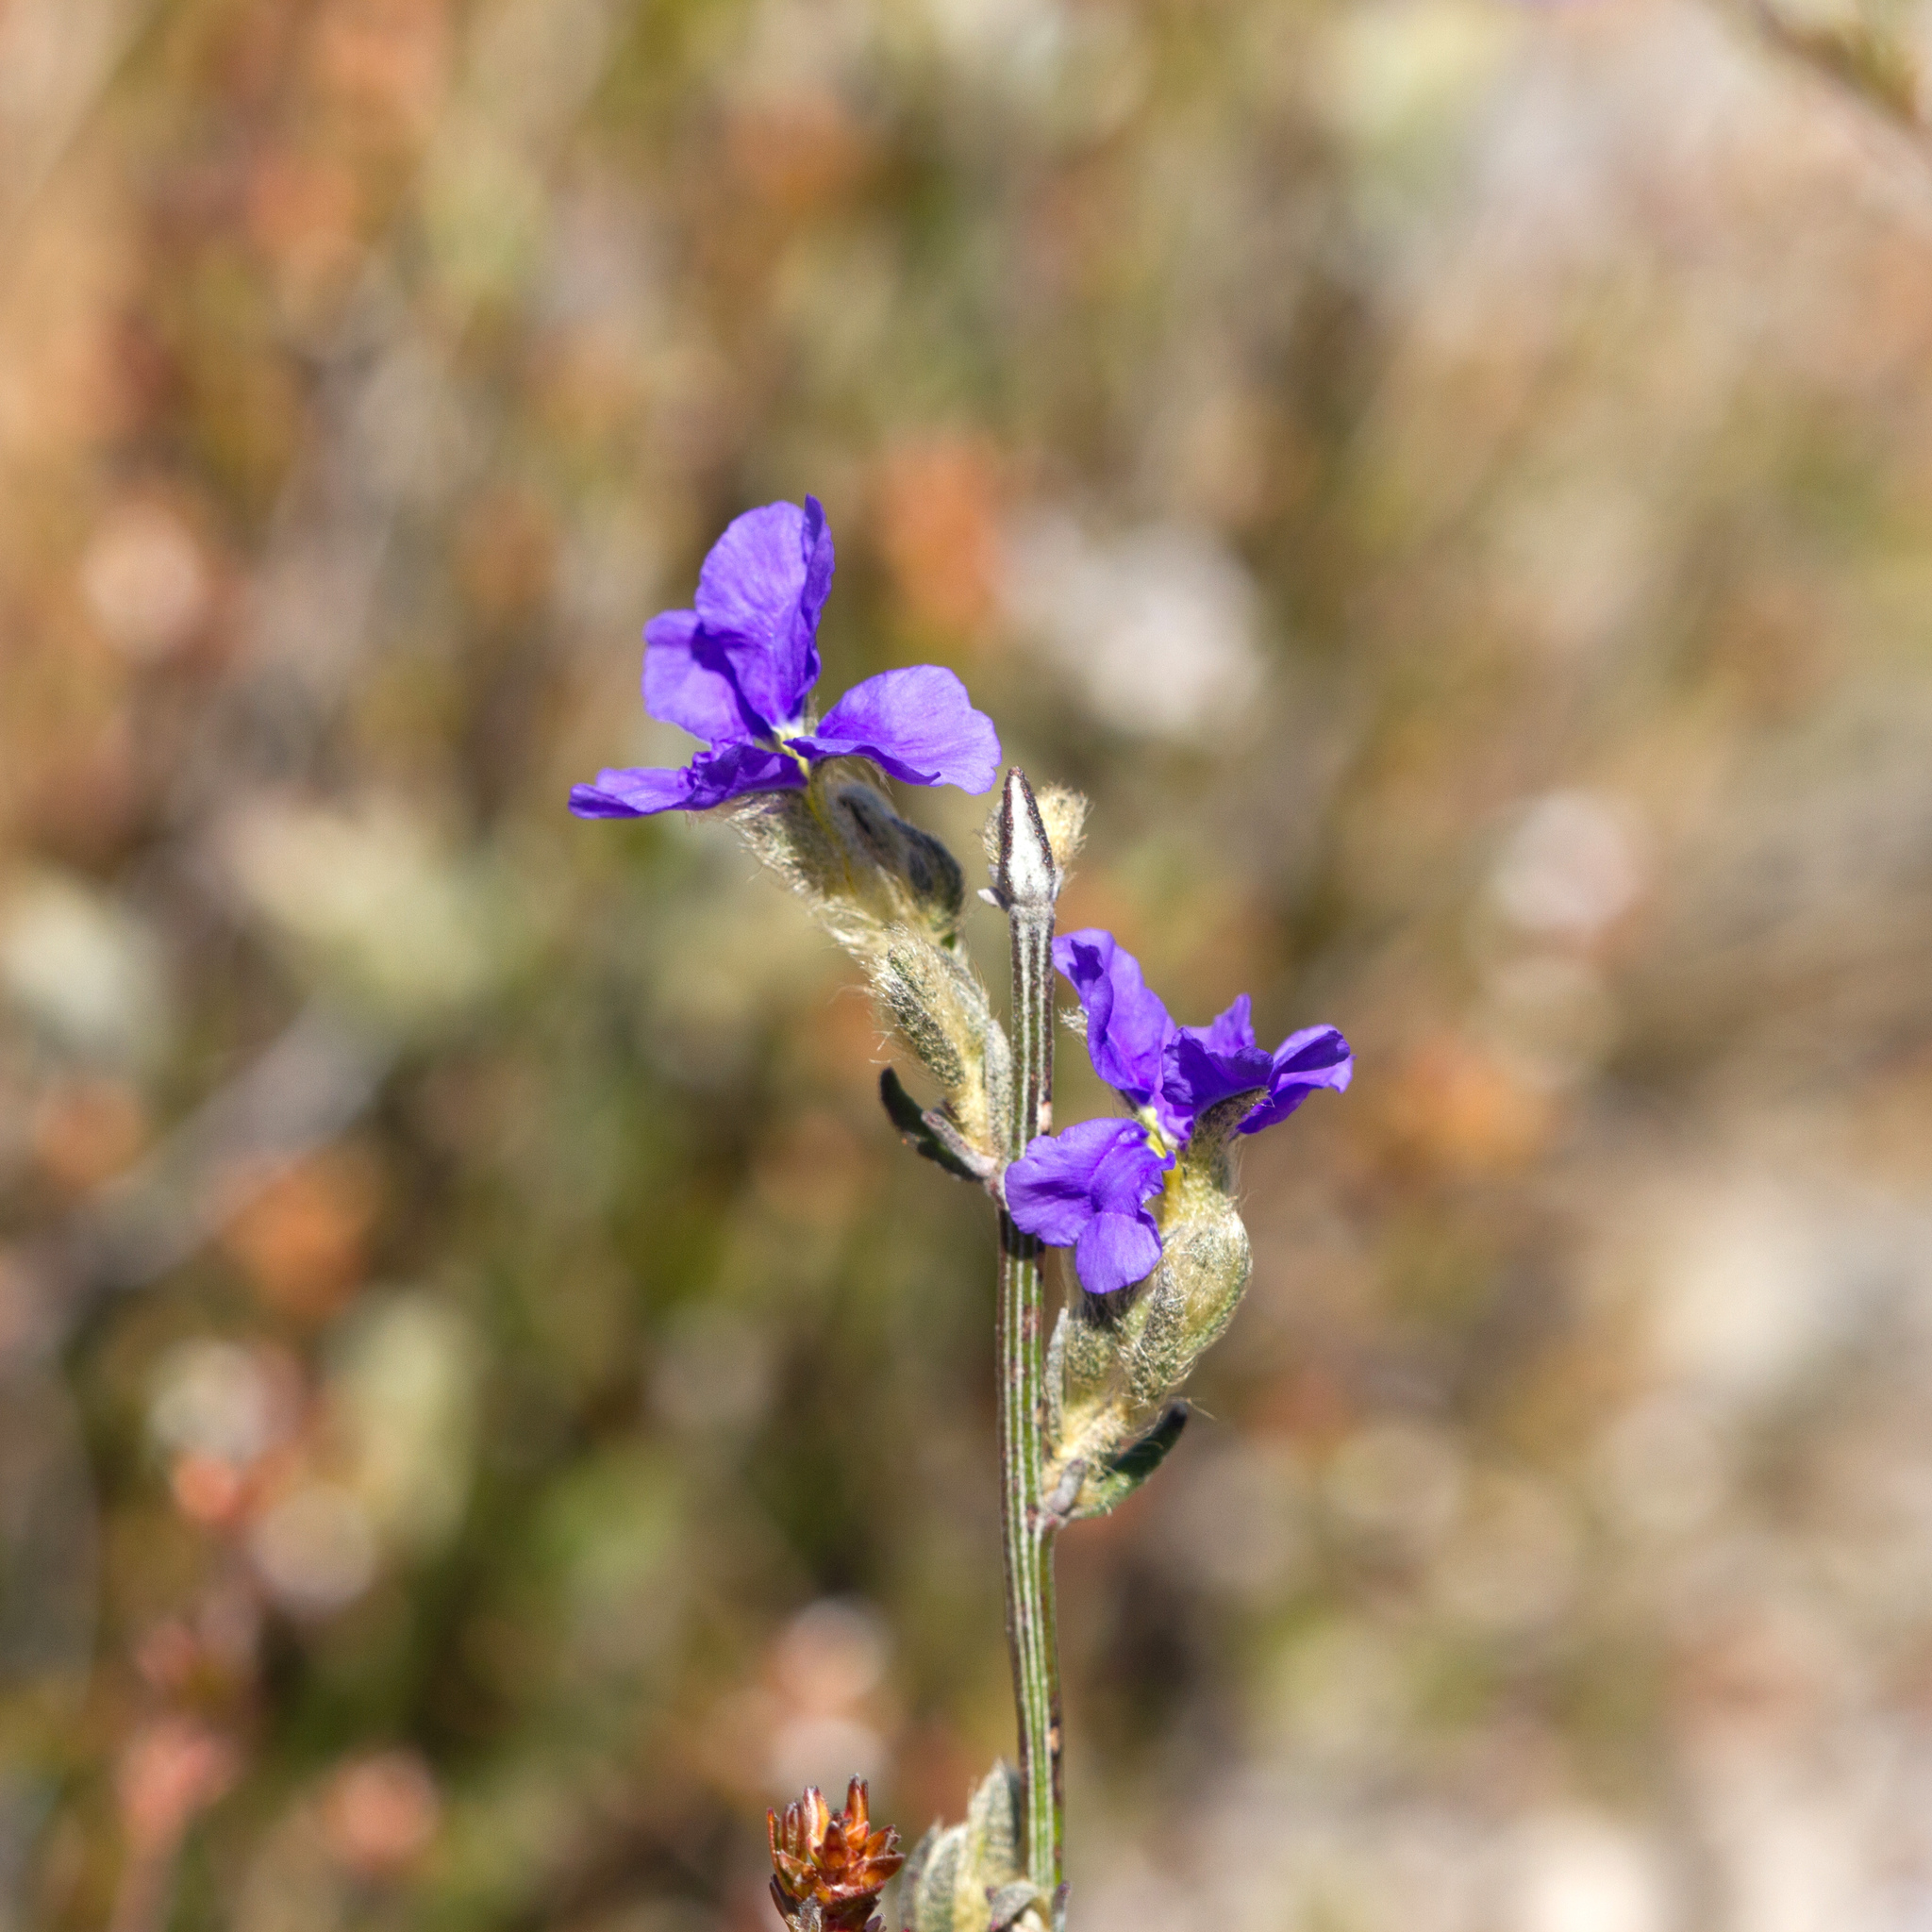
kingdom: Plantae
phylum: Tracheophyta
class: Magnoliopsida
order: Asterales
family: Goodeniaceae
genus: Dampiera
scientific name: Dampiera dysantha
